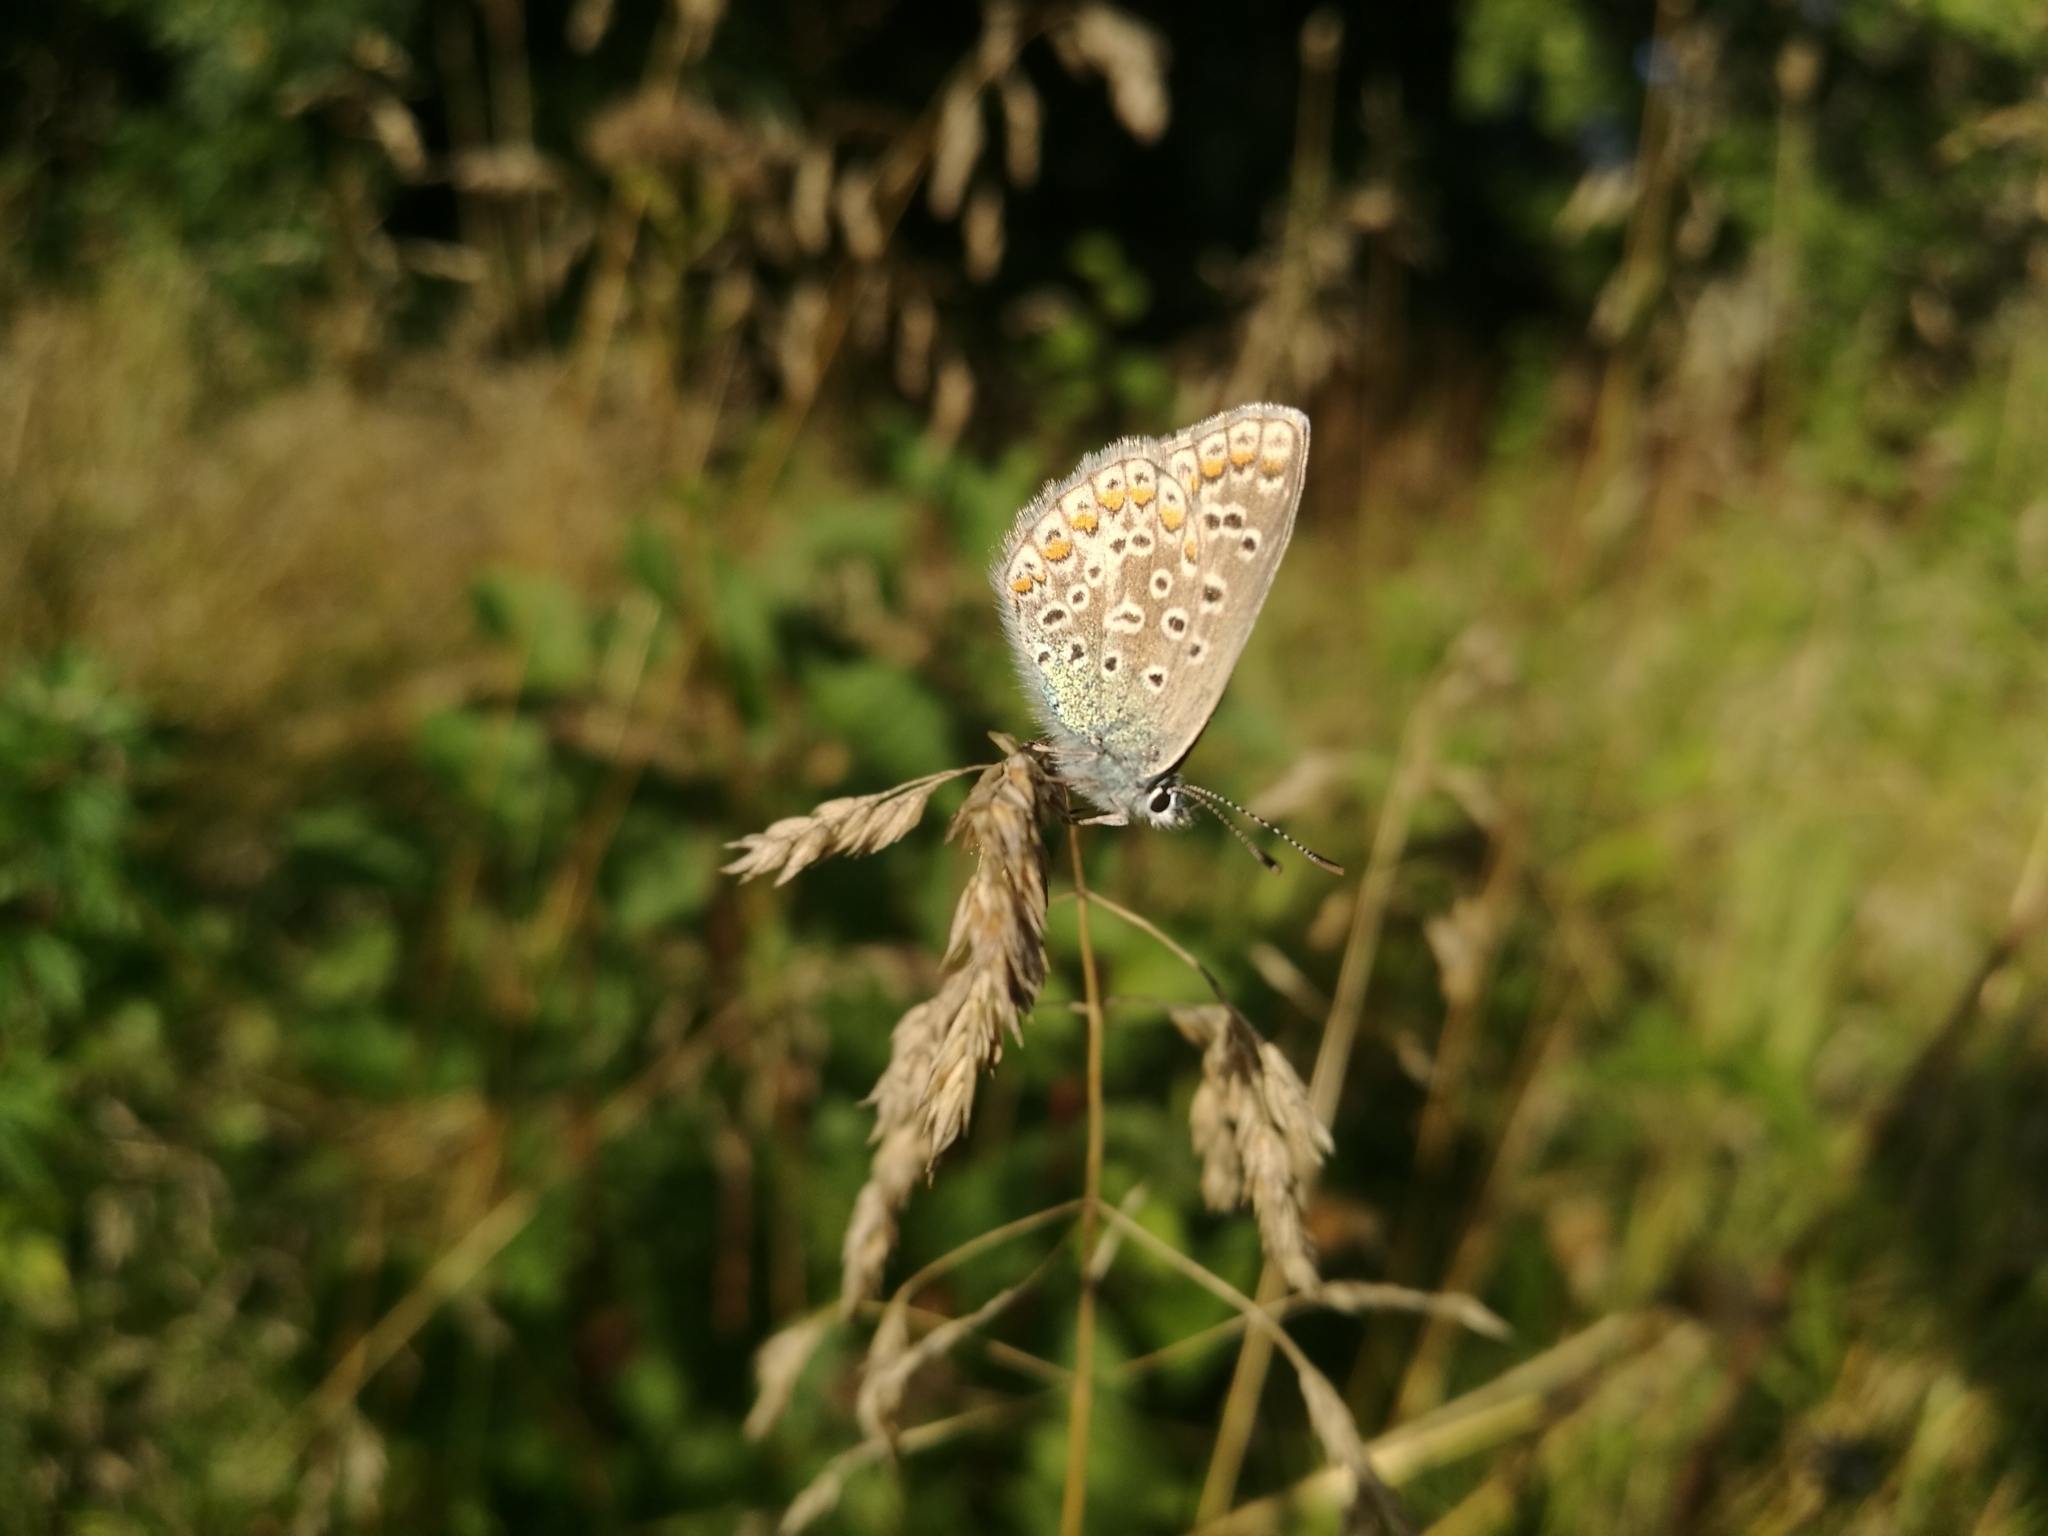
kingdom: Animalia
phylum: Arthropoda
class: Insecta
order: Lepidoptera
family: Lycaenidae
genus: Polyommatus
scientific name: Polyommatus icarus
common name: Common blue
